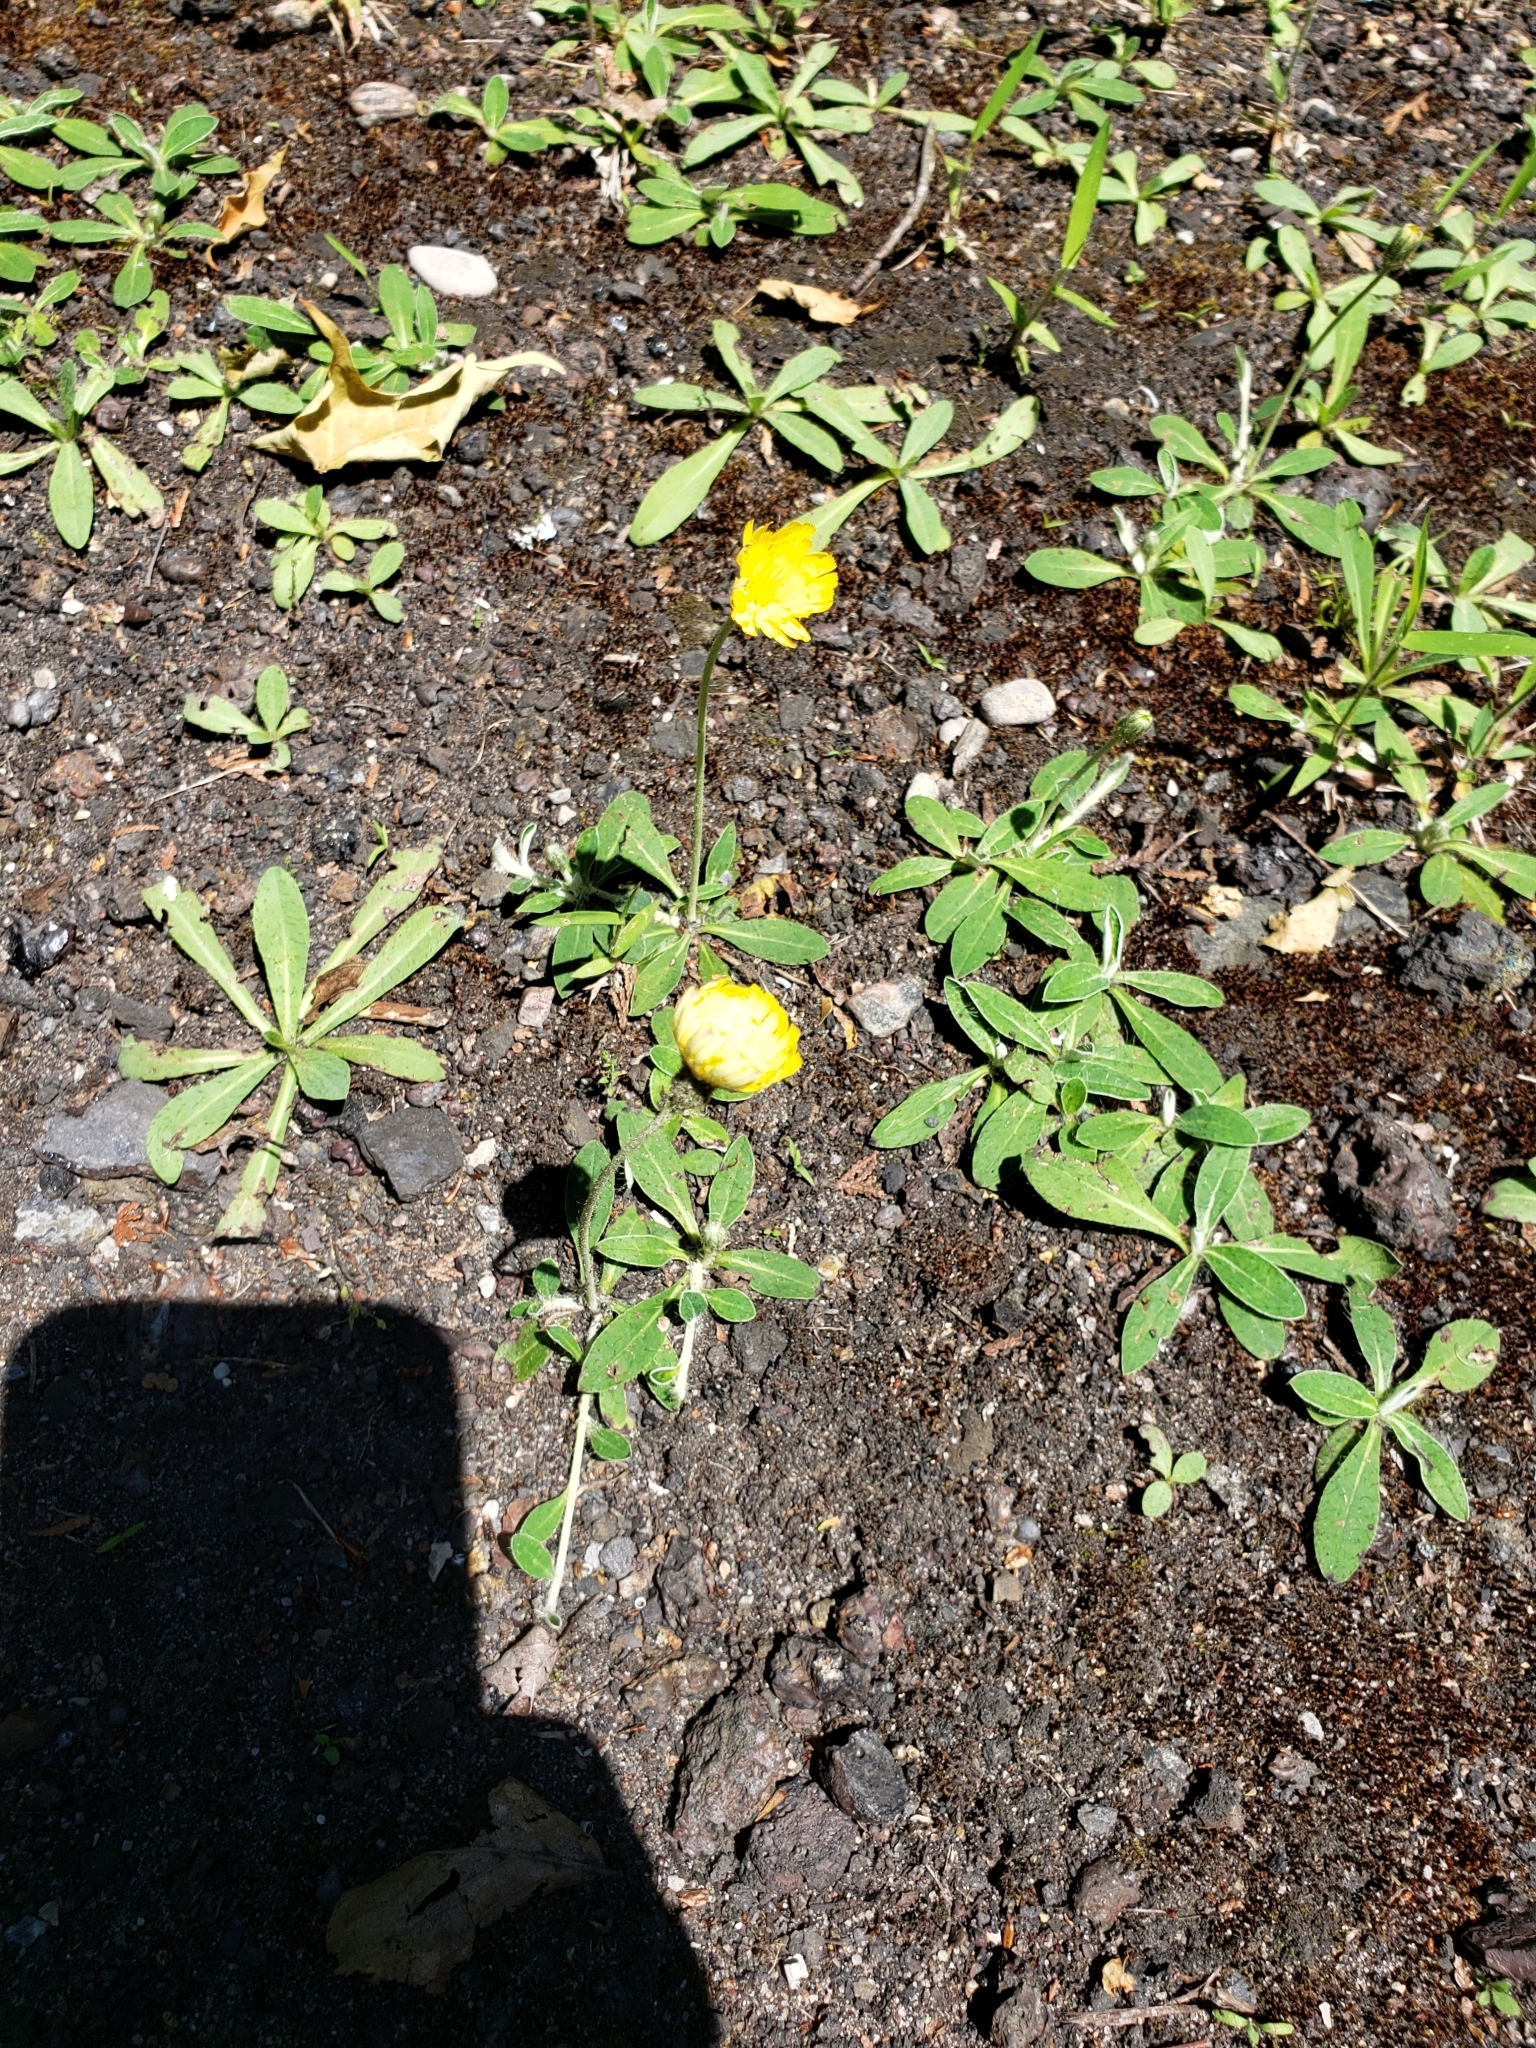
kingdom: Plantae
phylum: Tracheophyta
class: Magnoliopsida
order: Asterales
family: Asteraceae
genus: Pilosella
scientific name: Pilosella officinarum
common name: Mouse-ear hawkweed
